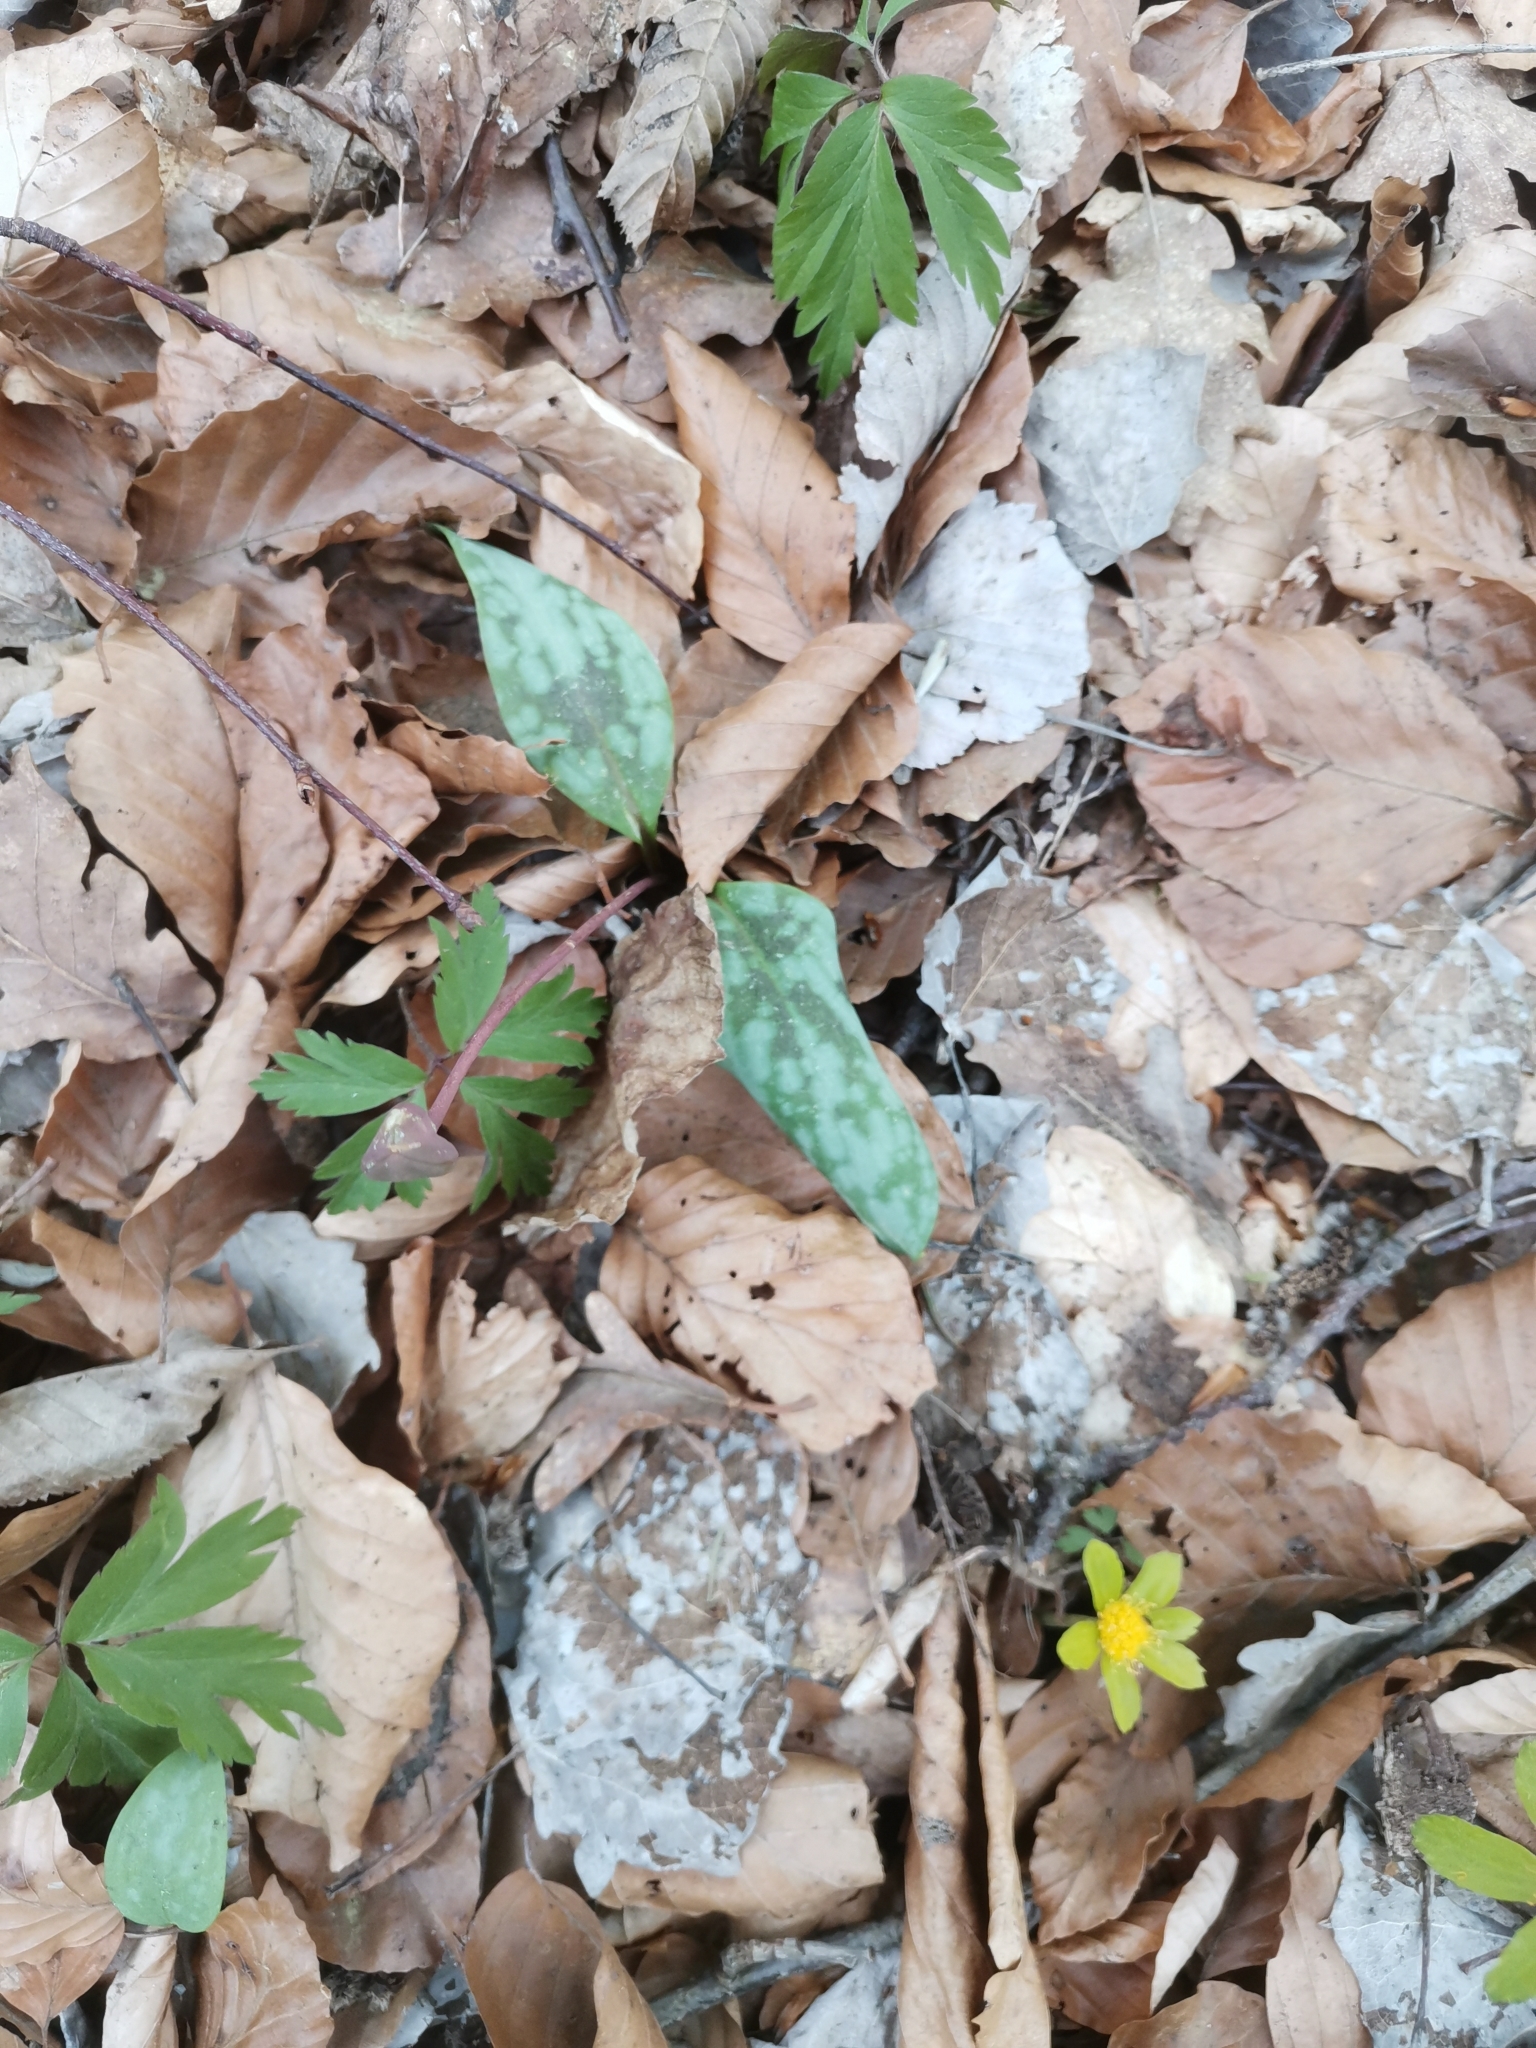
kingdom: Plantae
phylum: Tracheophyta
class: Liliopsida
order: Liliales
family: Liliaceae
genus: Erythronium
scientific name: Erythronium dens-canis
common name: Dog's-tooth-violet
